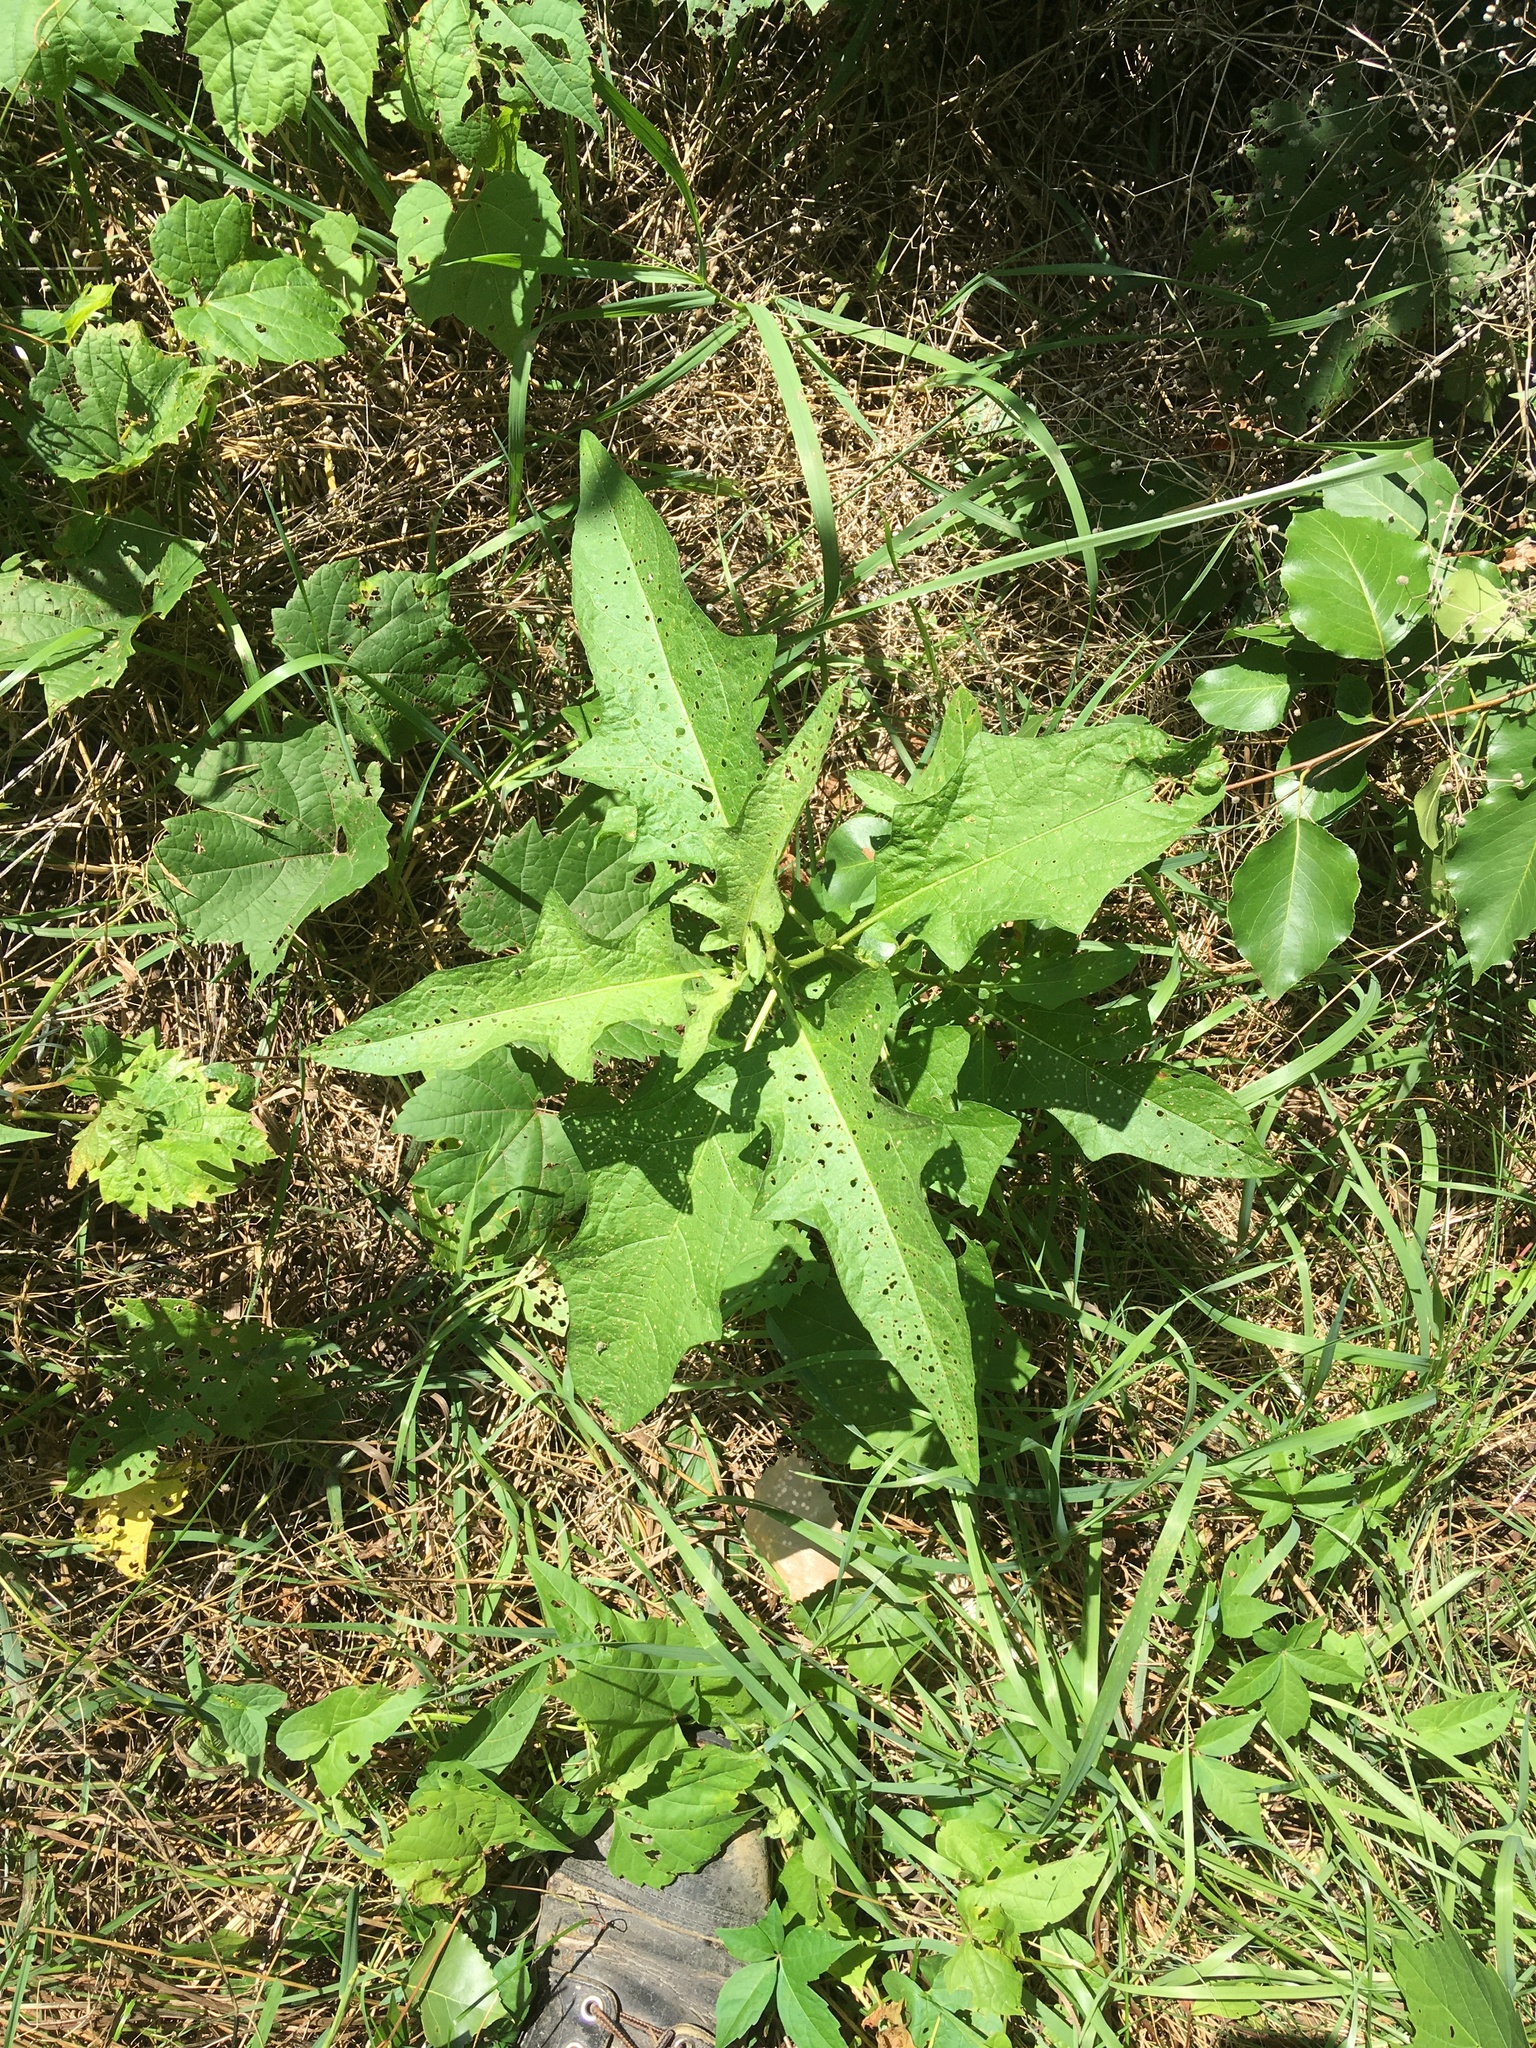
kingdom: Plantae
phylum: Tracheophyta
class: Magnoliopsida
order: Solanales
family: Solanaceae
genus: Solanum
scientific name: Solanum carolinense
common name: Horse-nettle
